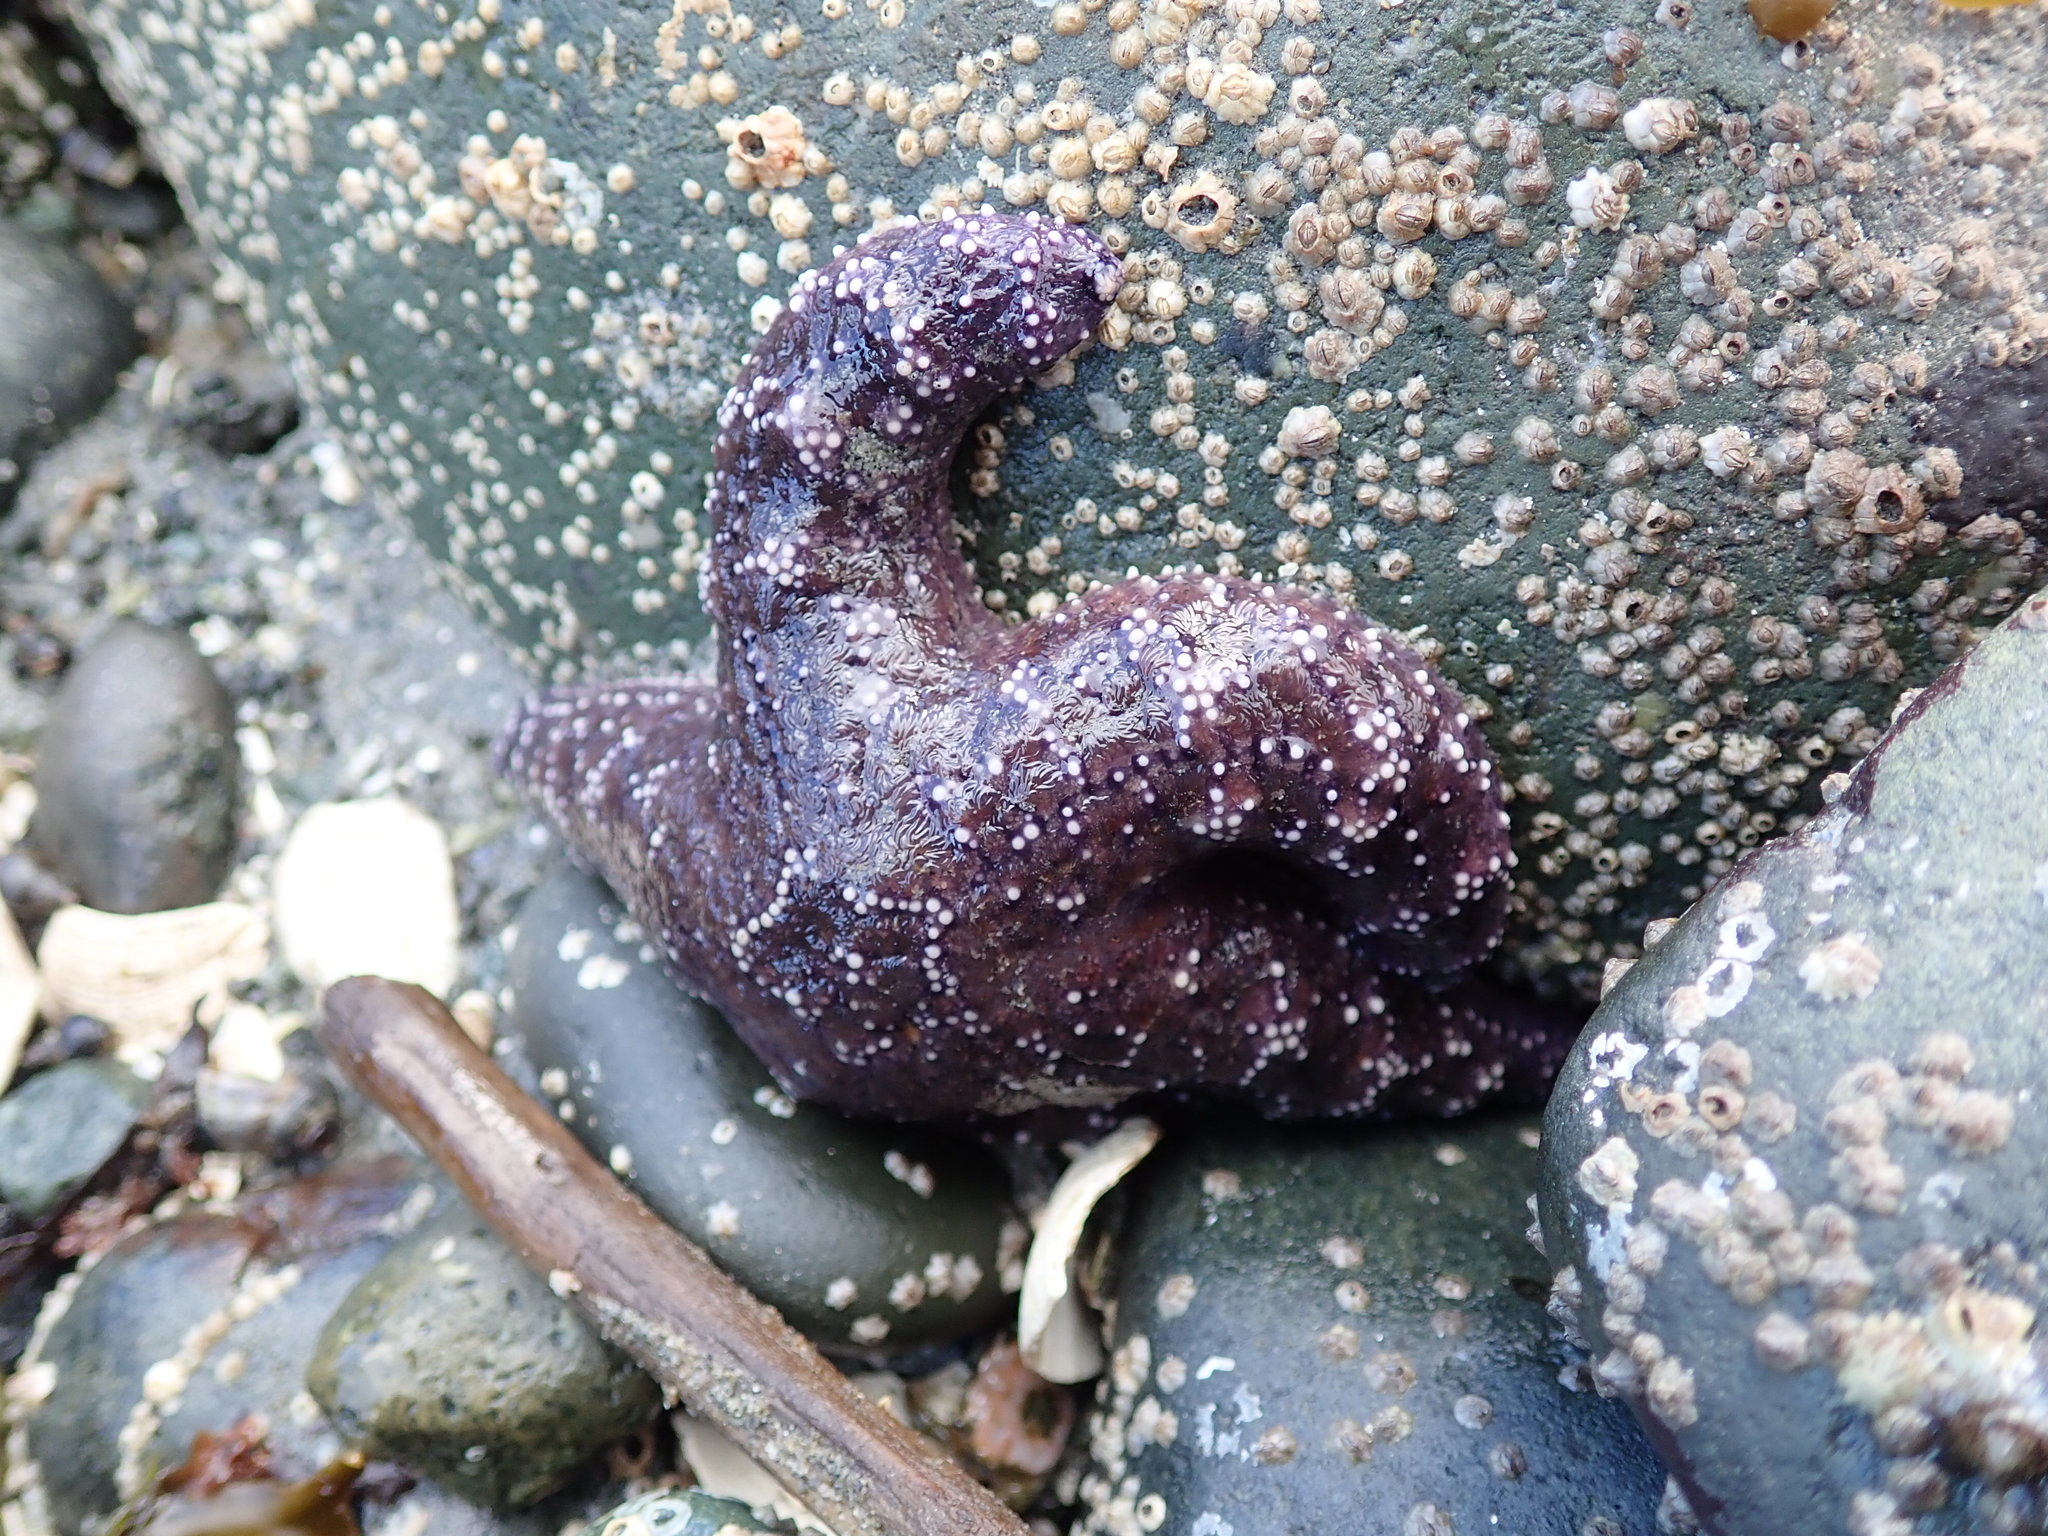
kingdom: Animalia
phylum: Echinodermata
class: Asteroidea
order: Forcipulatida
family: Asteriidae
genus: Pisaster
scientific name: Pisaster ochraceus
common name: Ochre stars
